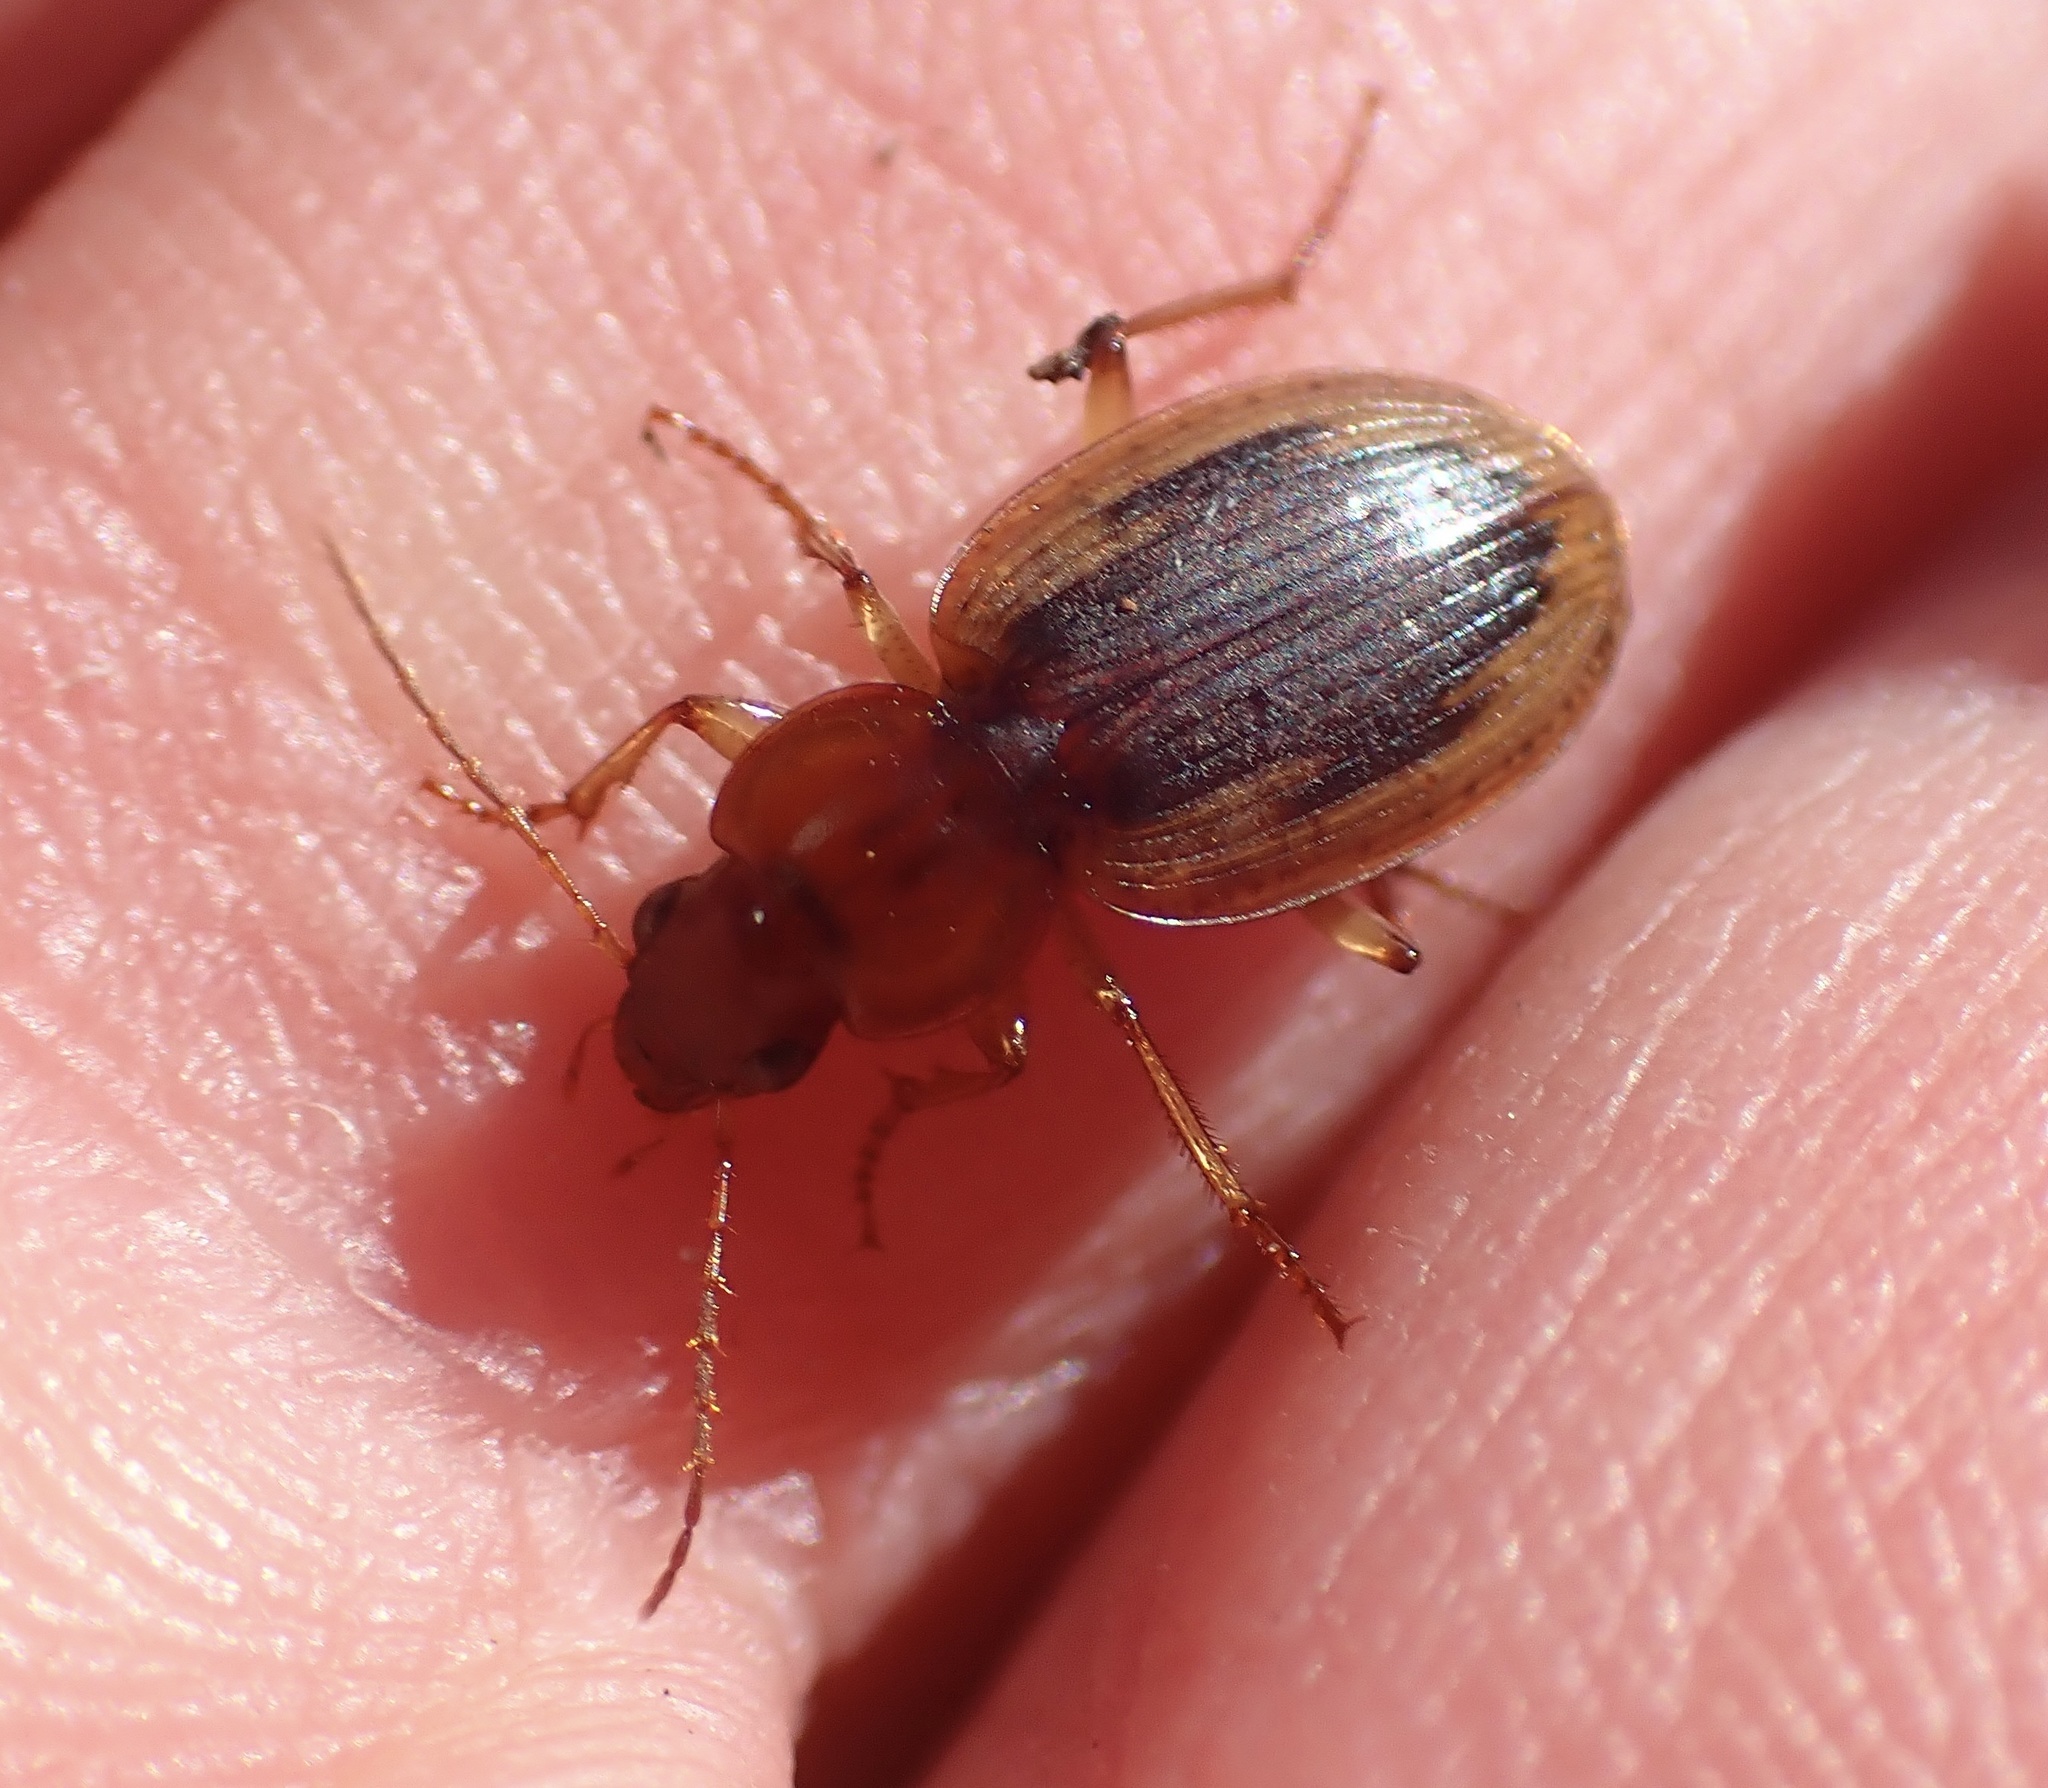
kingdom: Animalia
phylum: Arthropoda
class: Insecta
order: Coleoptera
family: Carabidae
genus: Tanystoma
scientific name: Tanystoma maculicolle
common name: Tule beetle
